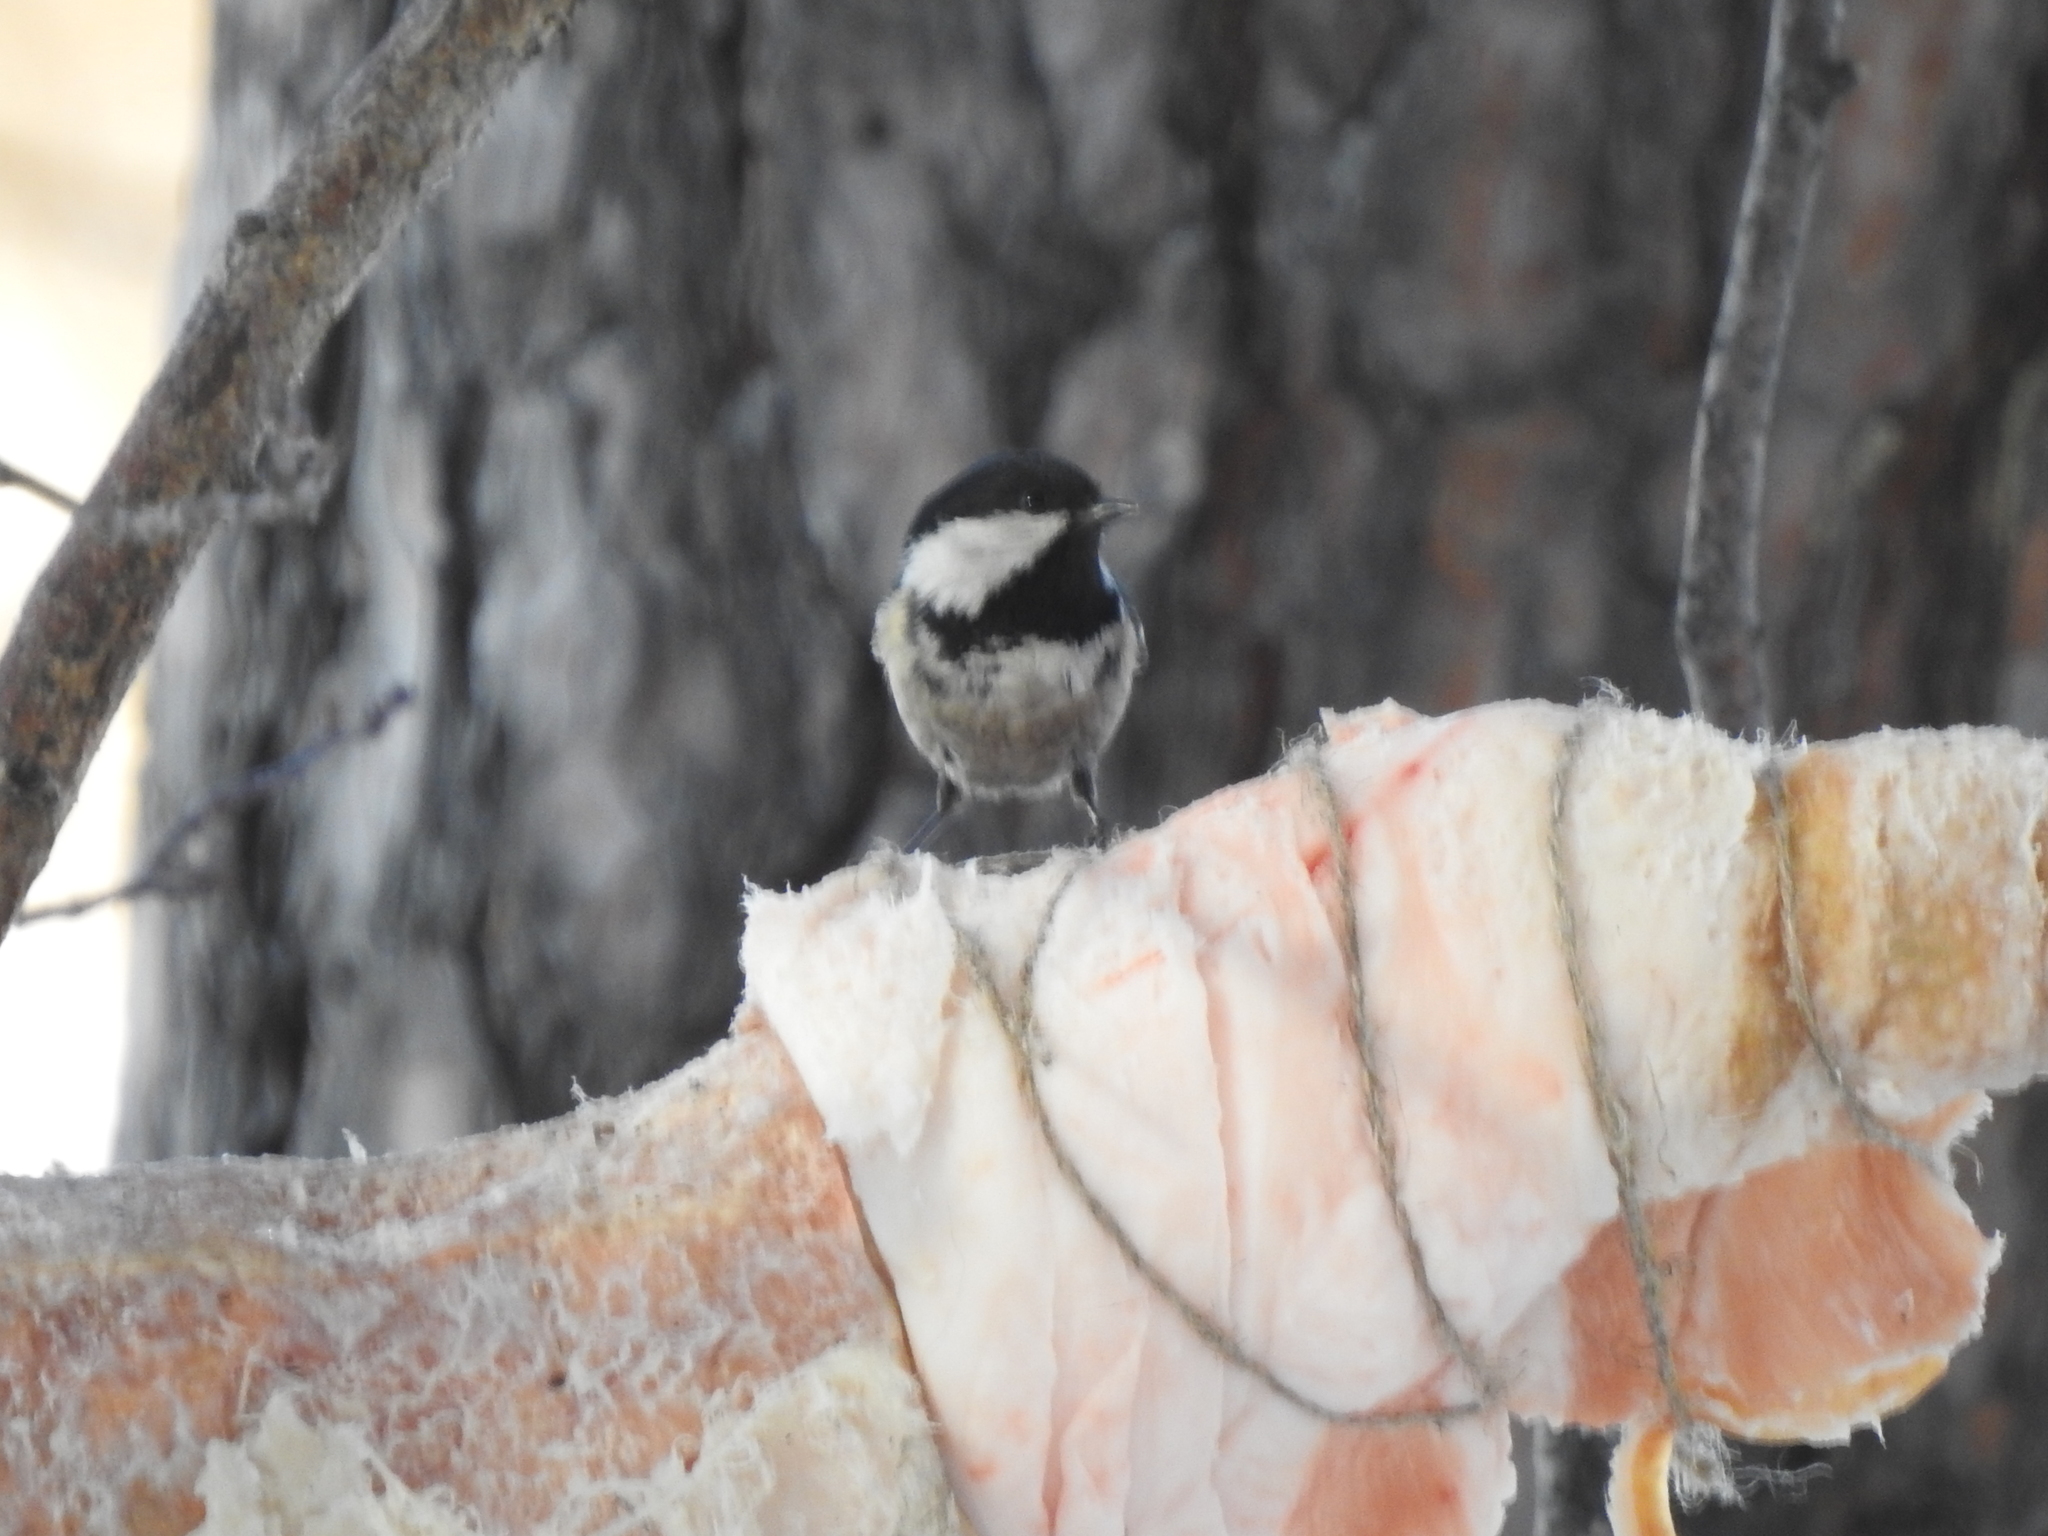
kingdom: Animalia
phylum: Chordata
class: Aves
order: Passeriformes
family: Paridae
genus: Periparus
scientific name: Periparus ater
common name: Coal tit
